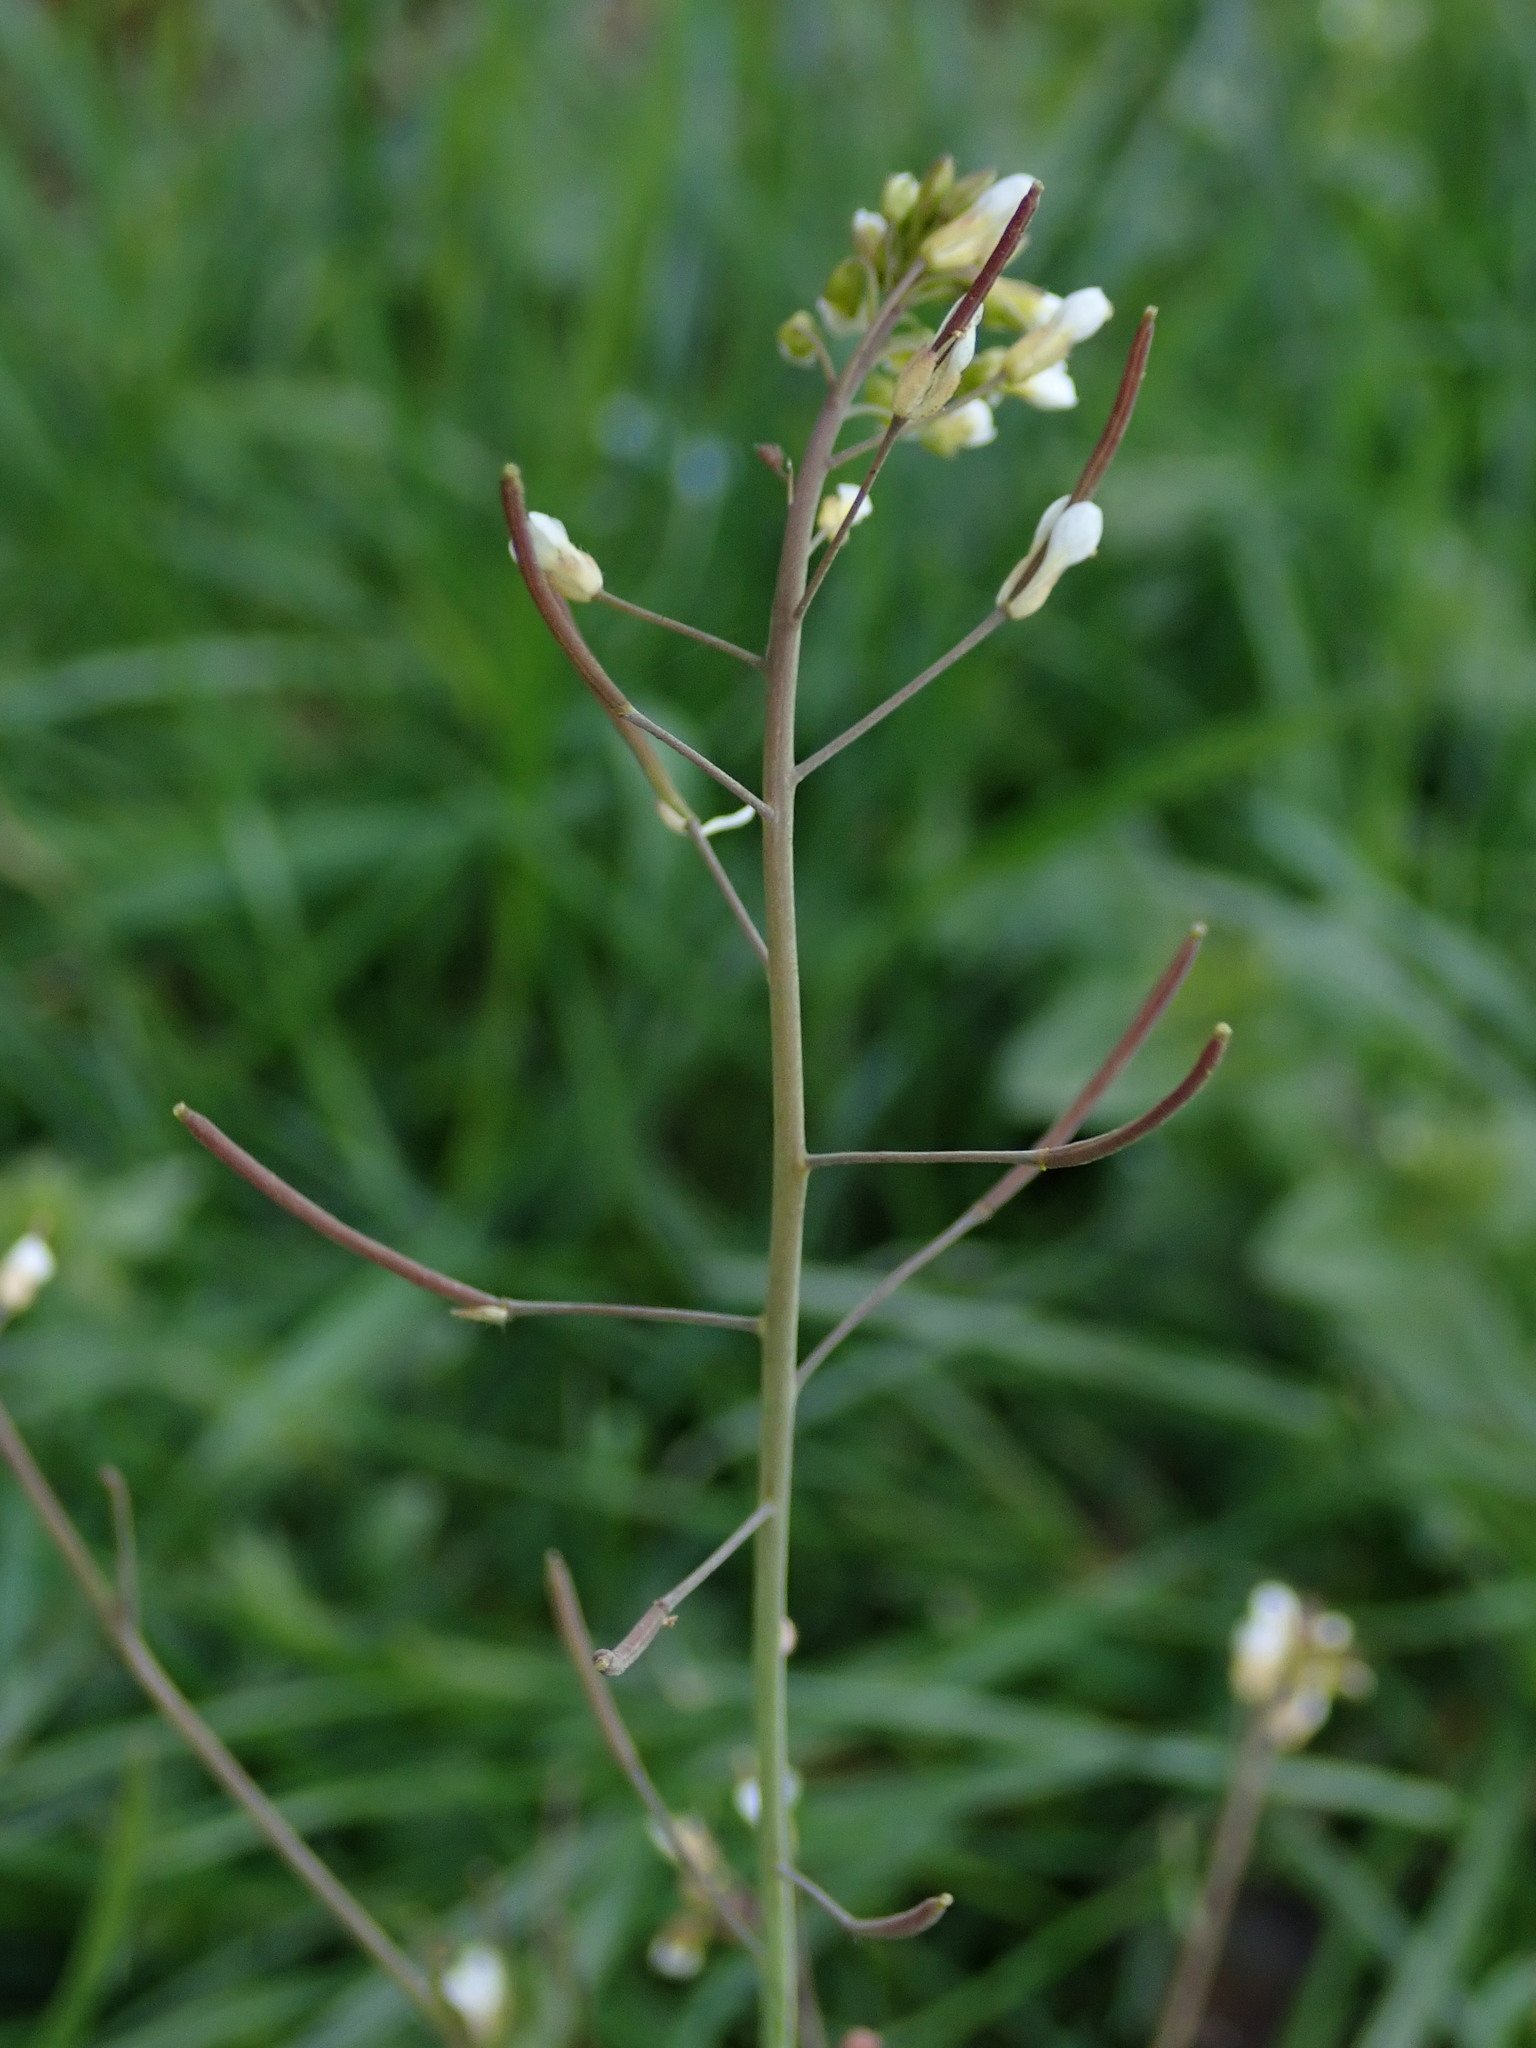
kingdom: Plantae
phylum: Tracheophyta
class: Magnoliopsida
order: Brassicales
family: Brassicaceae
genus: Arabidopsis
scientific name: Arabidopsis thaliana
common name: Thale cress
